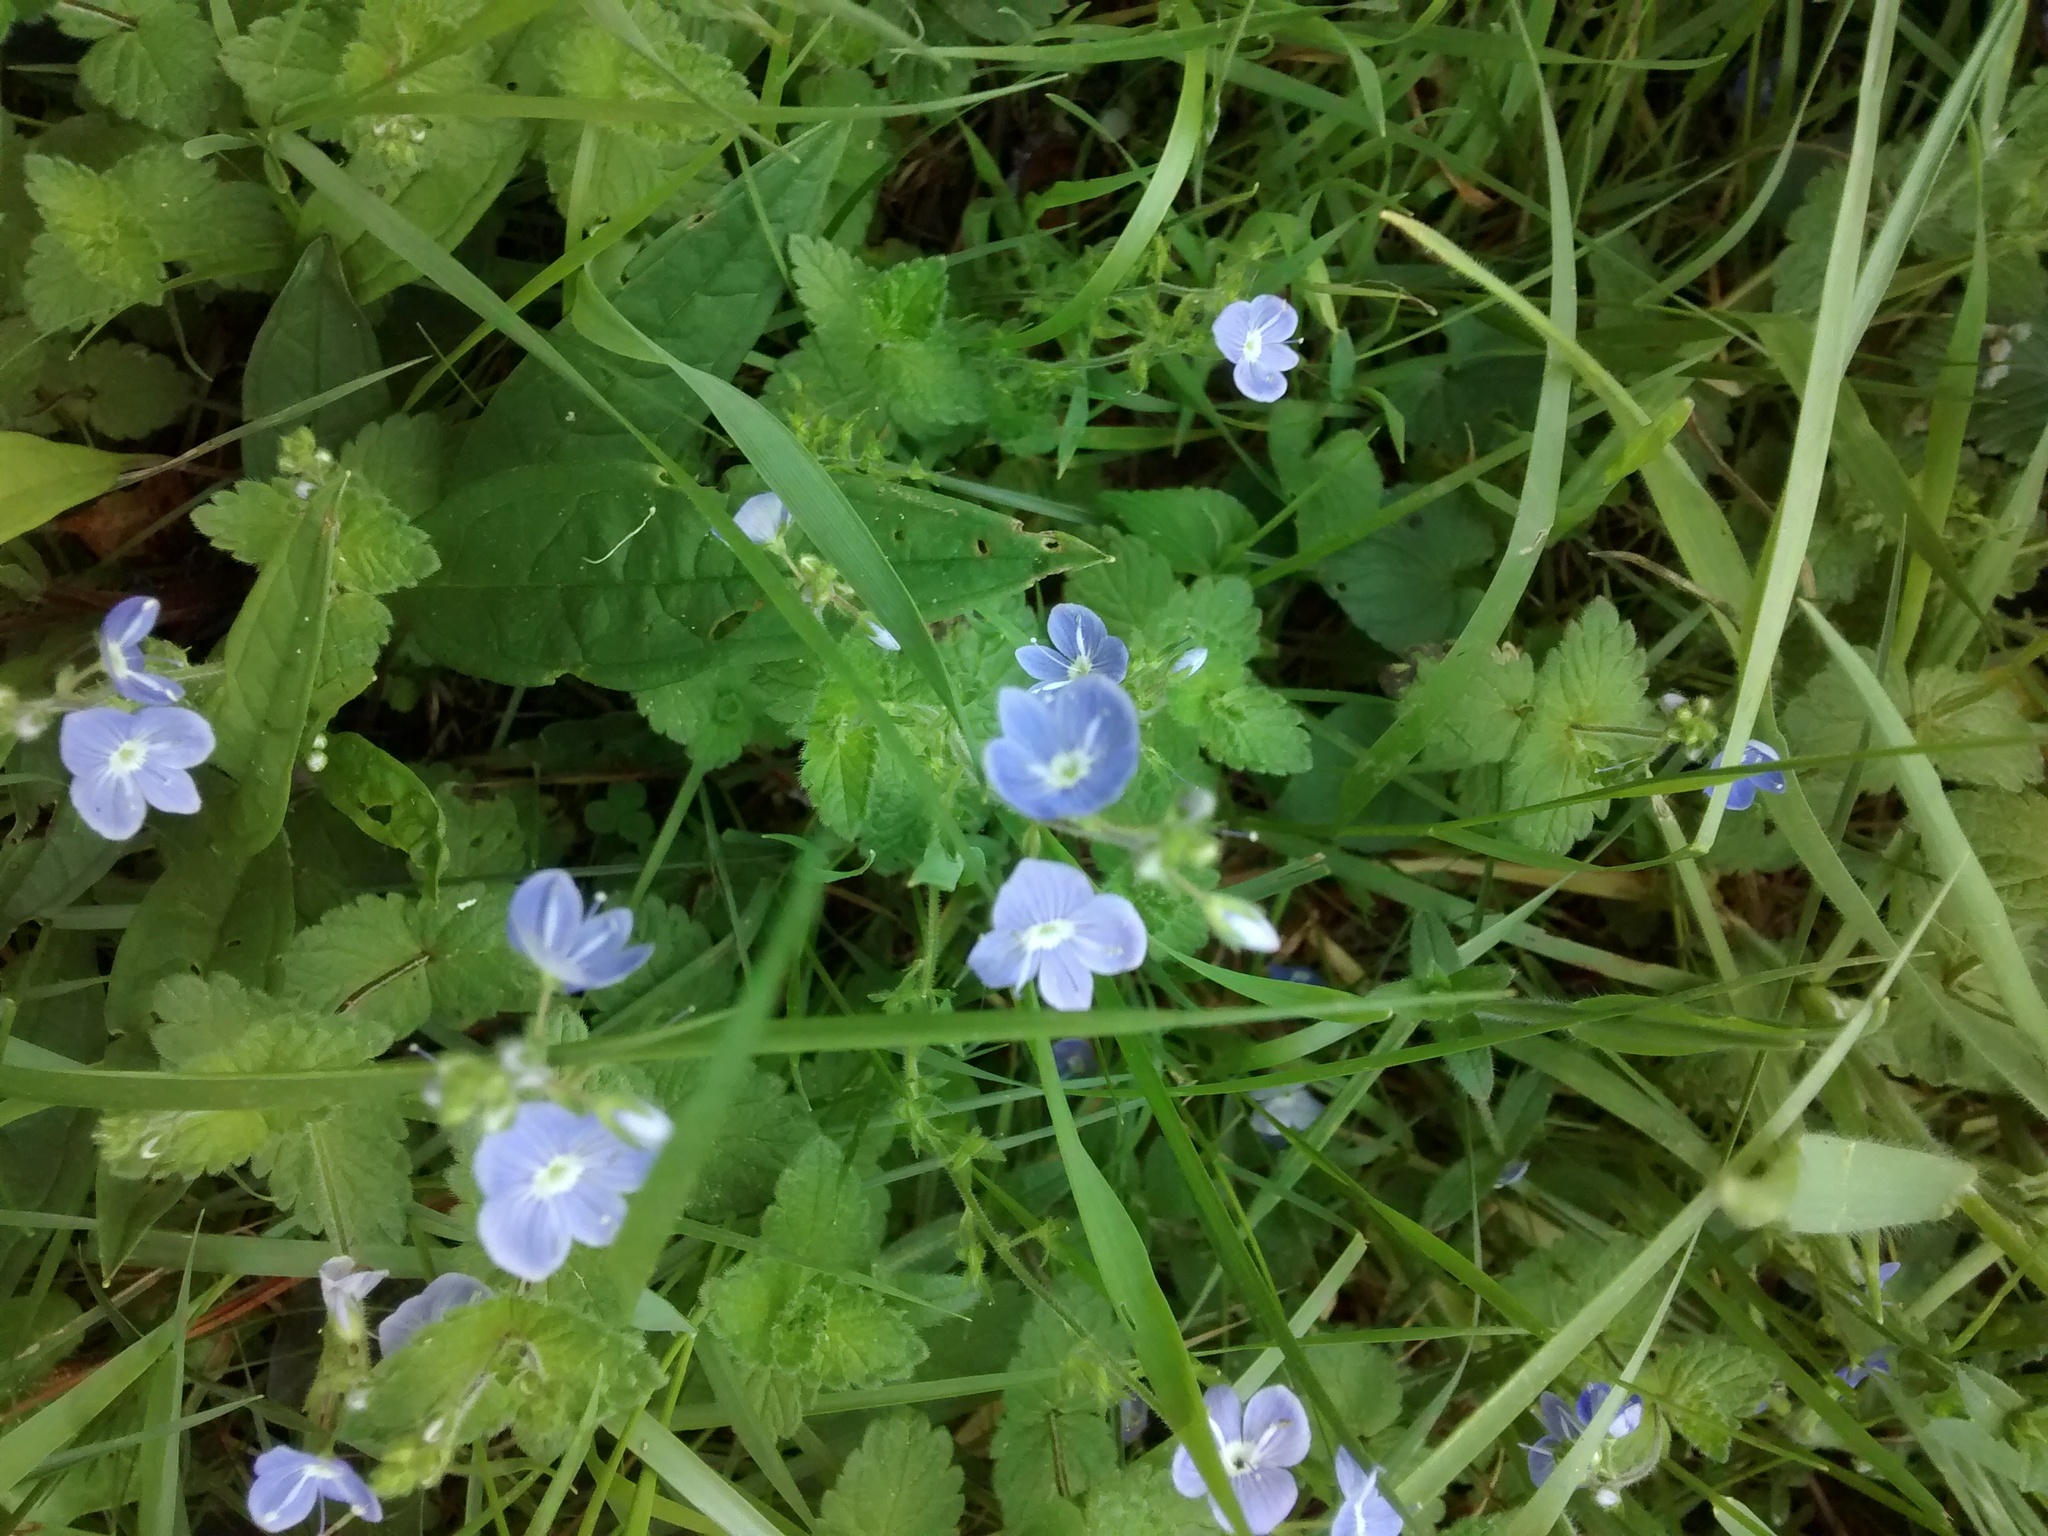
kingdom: Plantae
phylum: Tracheophyta
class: Magnoliopsida
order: Lamiales
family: Plantaginaceae
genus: Veronica
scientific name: Veronica chamaedrys
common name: Germander speedwell
